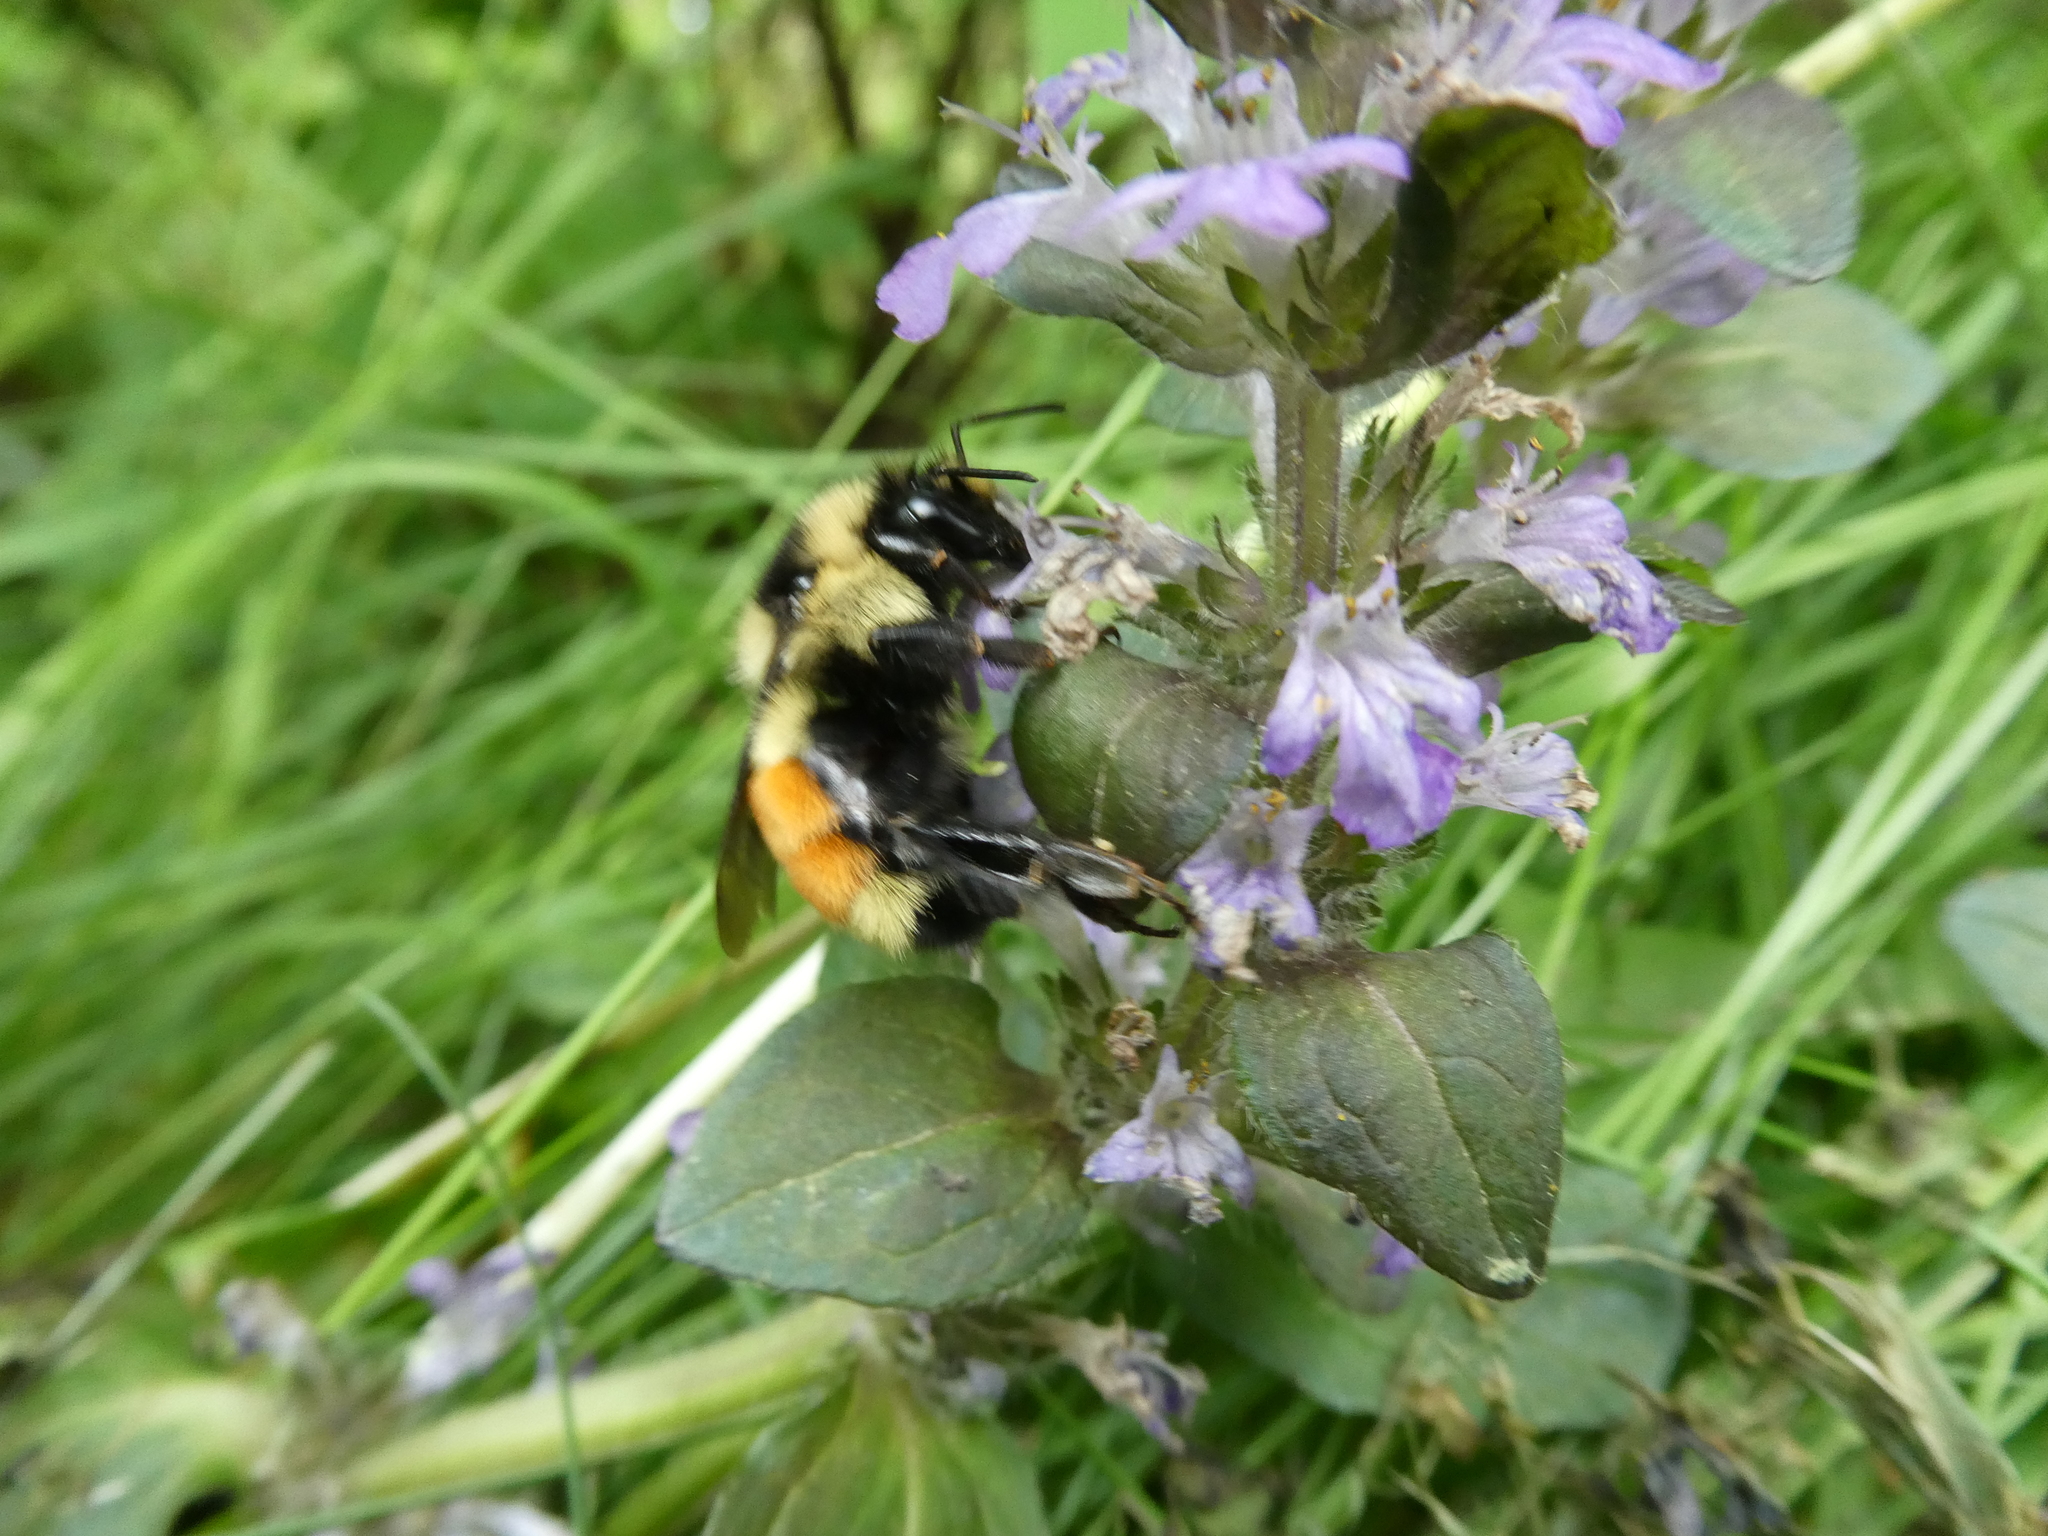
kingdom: Animalia
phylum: Arthropoda
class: Insecta
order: Hymenoptera
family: Apidae
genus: Bombus
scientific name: Bombus ternarius
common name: Tri-colored bumble bee
